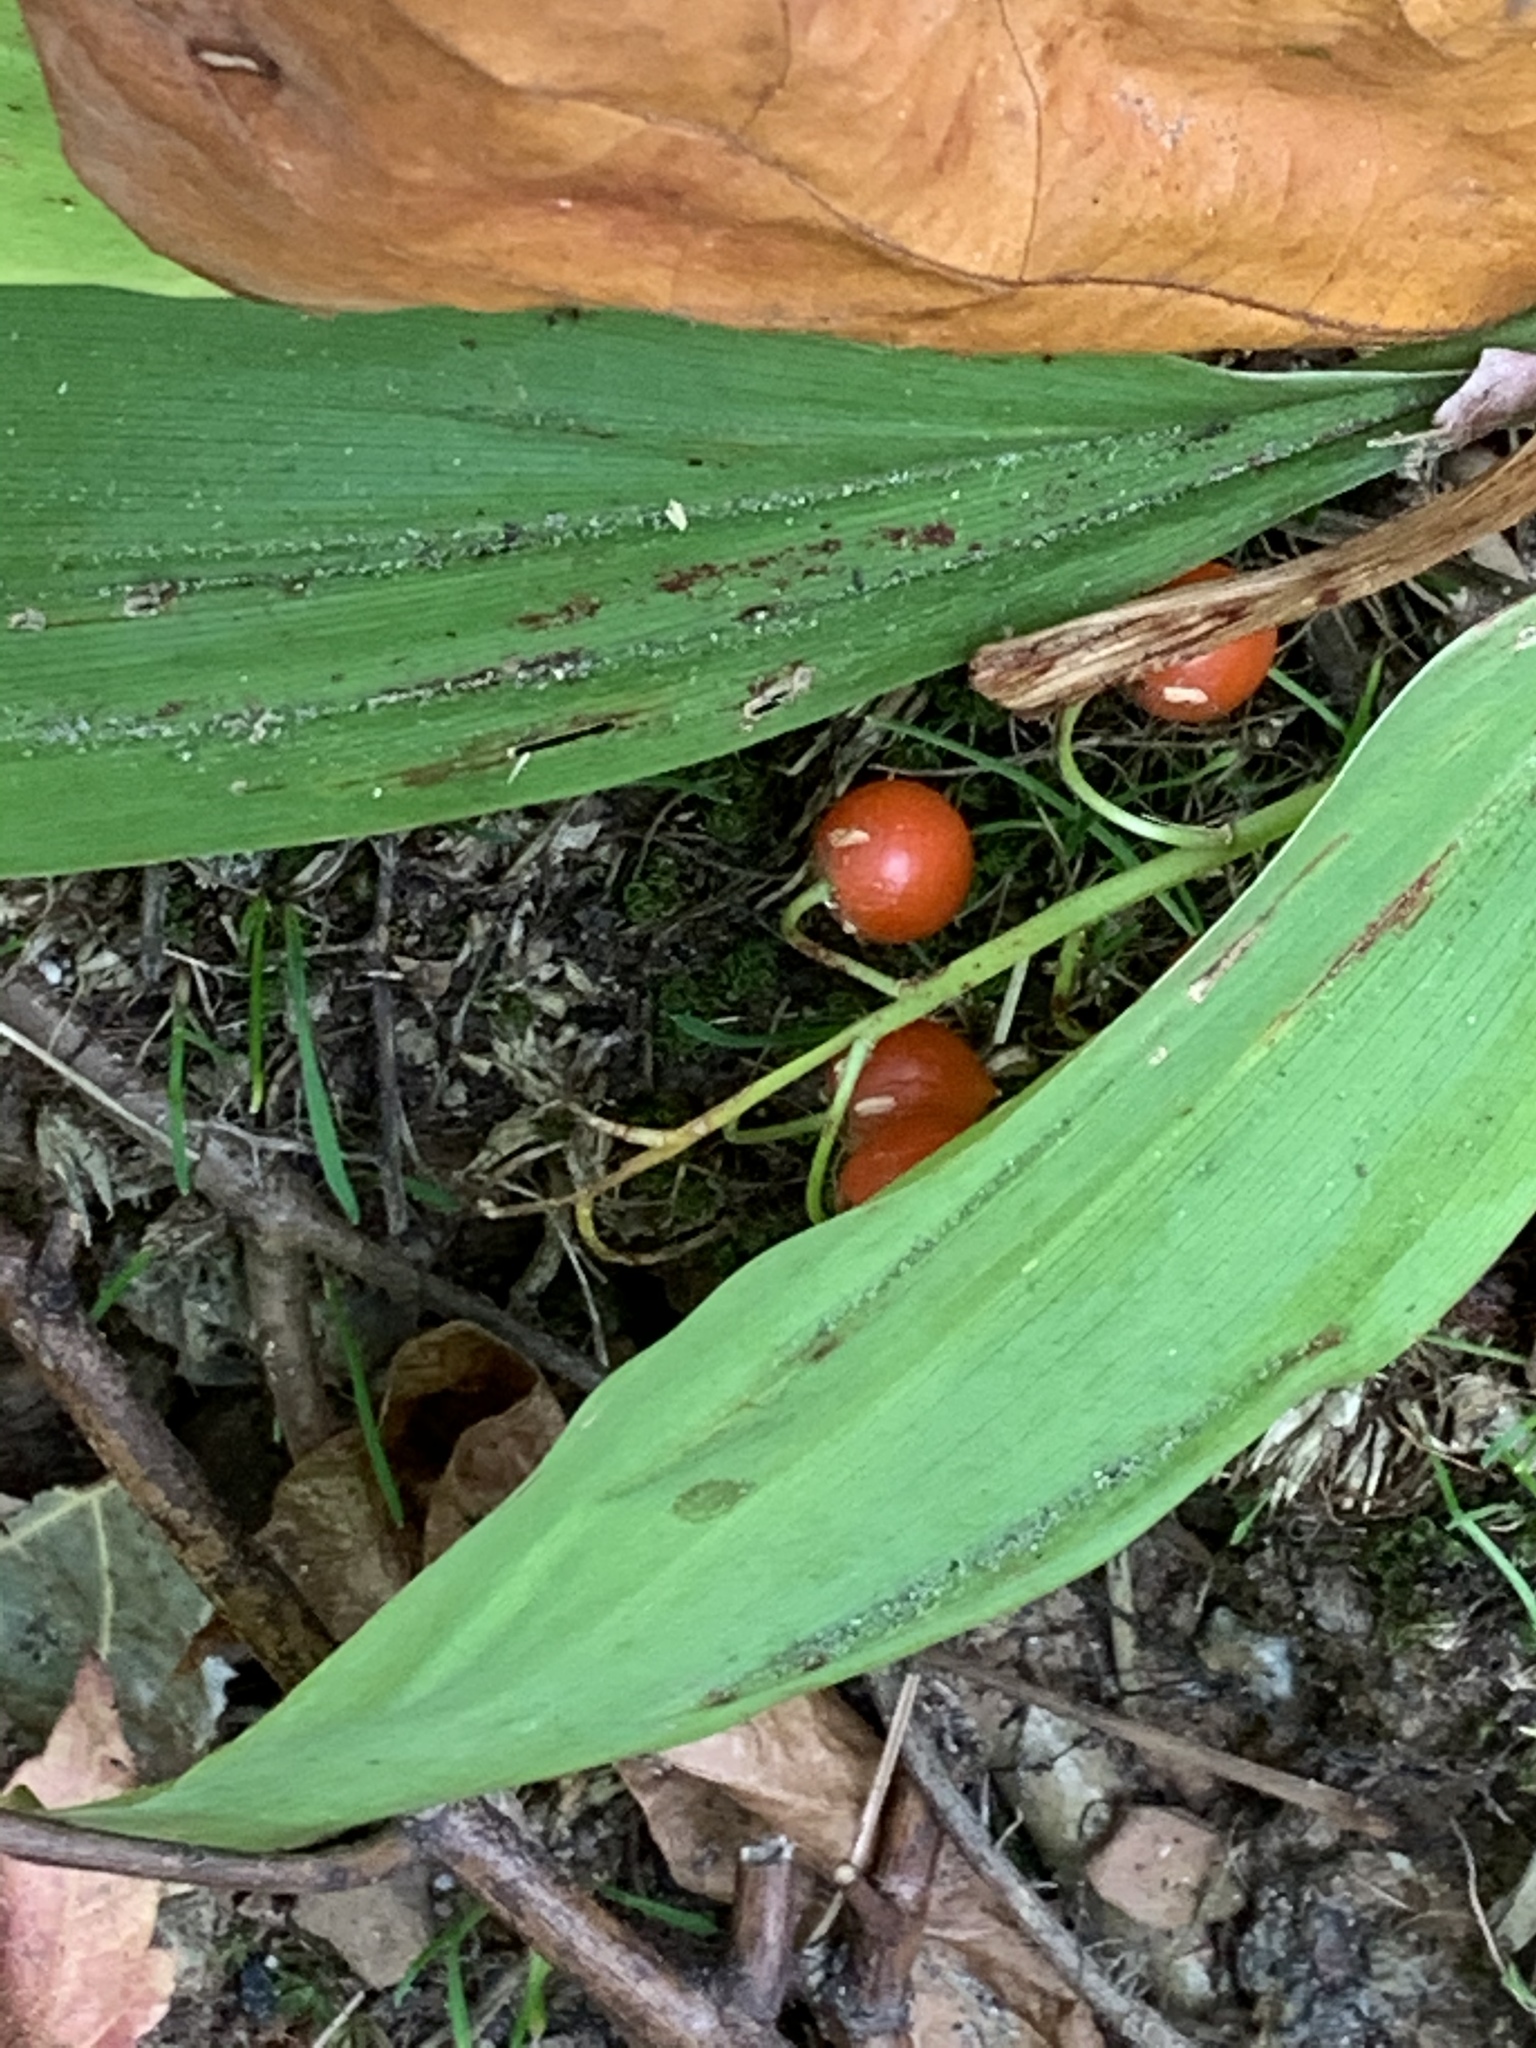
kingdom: Plantae
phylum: Tracheophyta
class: Liliopsida
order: Asparagales
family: Asparagaceae
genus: Convallaria
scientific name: Convallaria majalis
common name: Lily-of-the-valley
